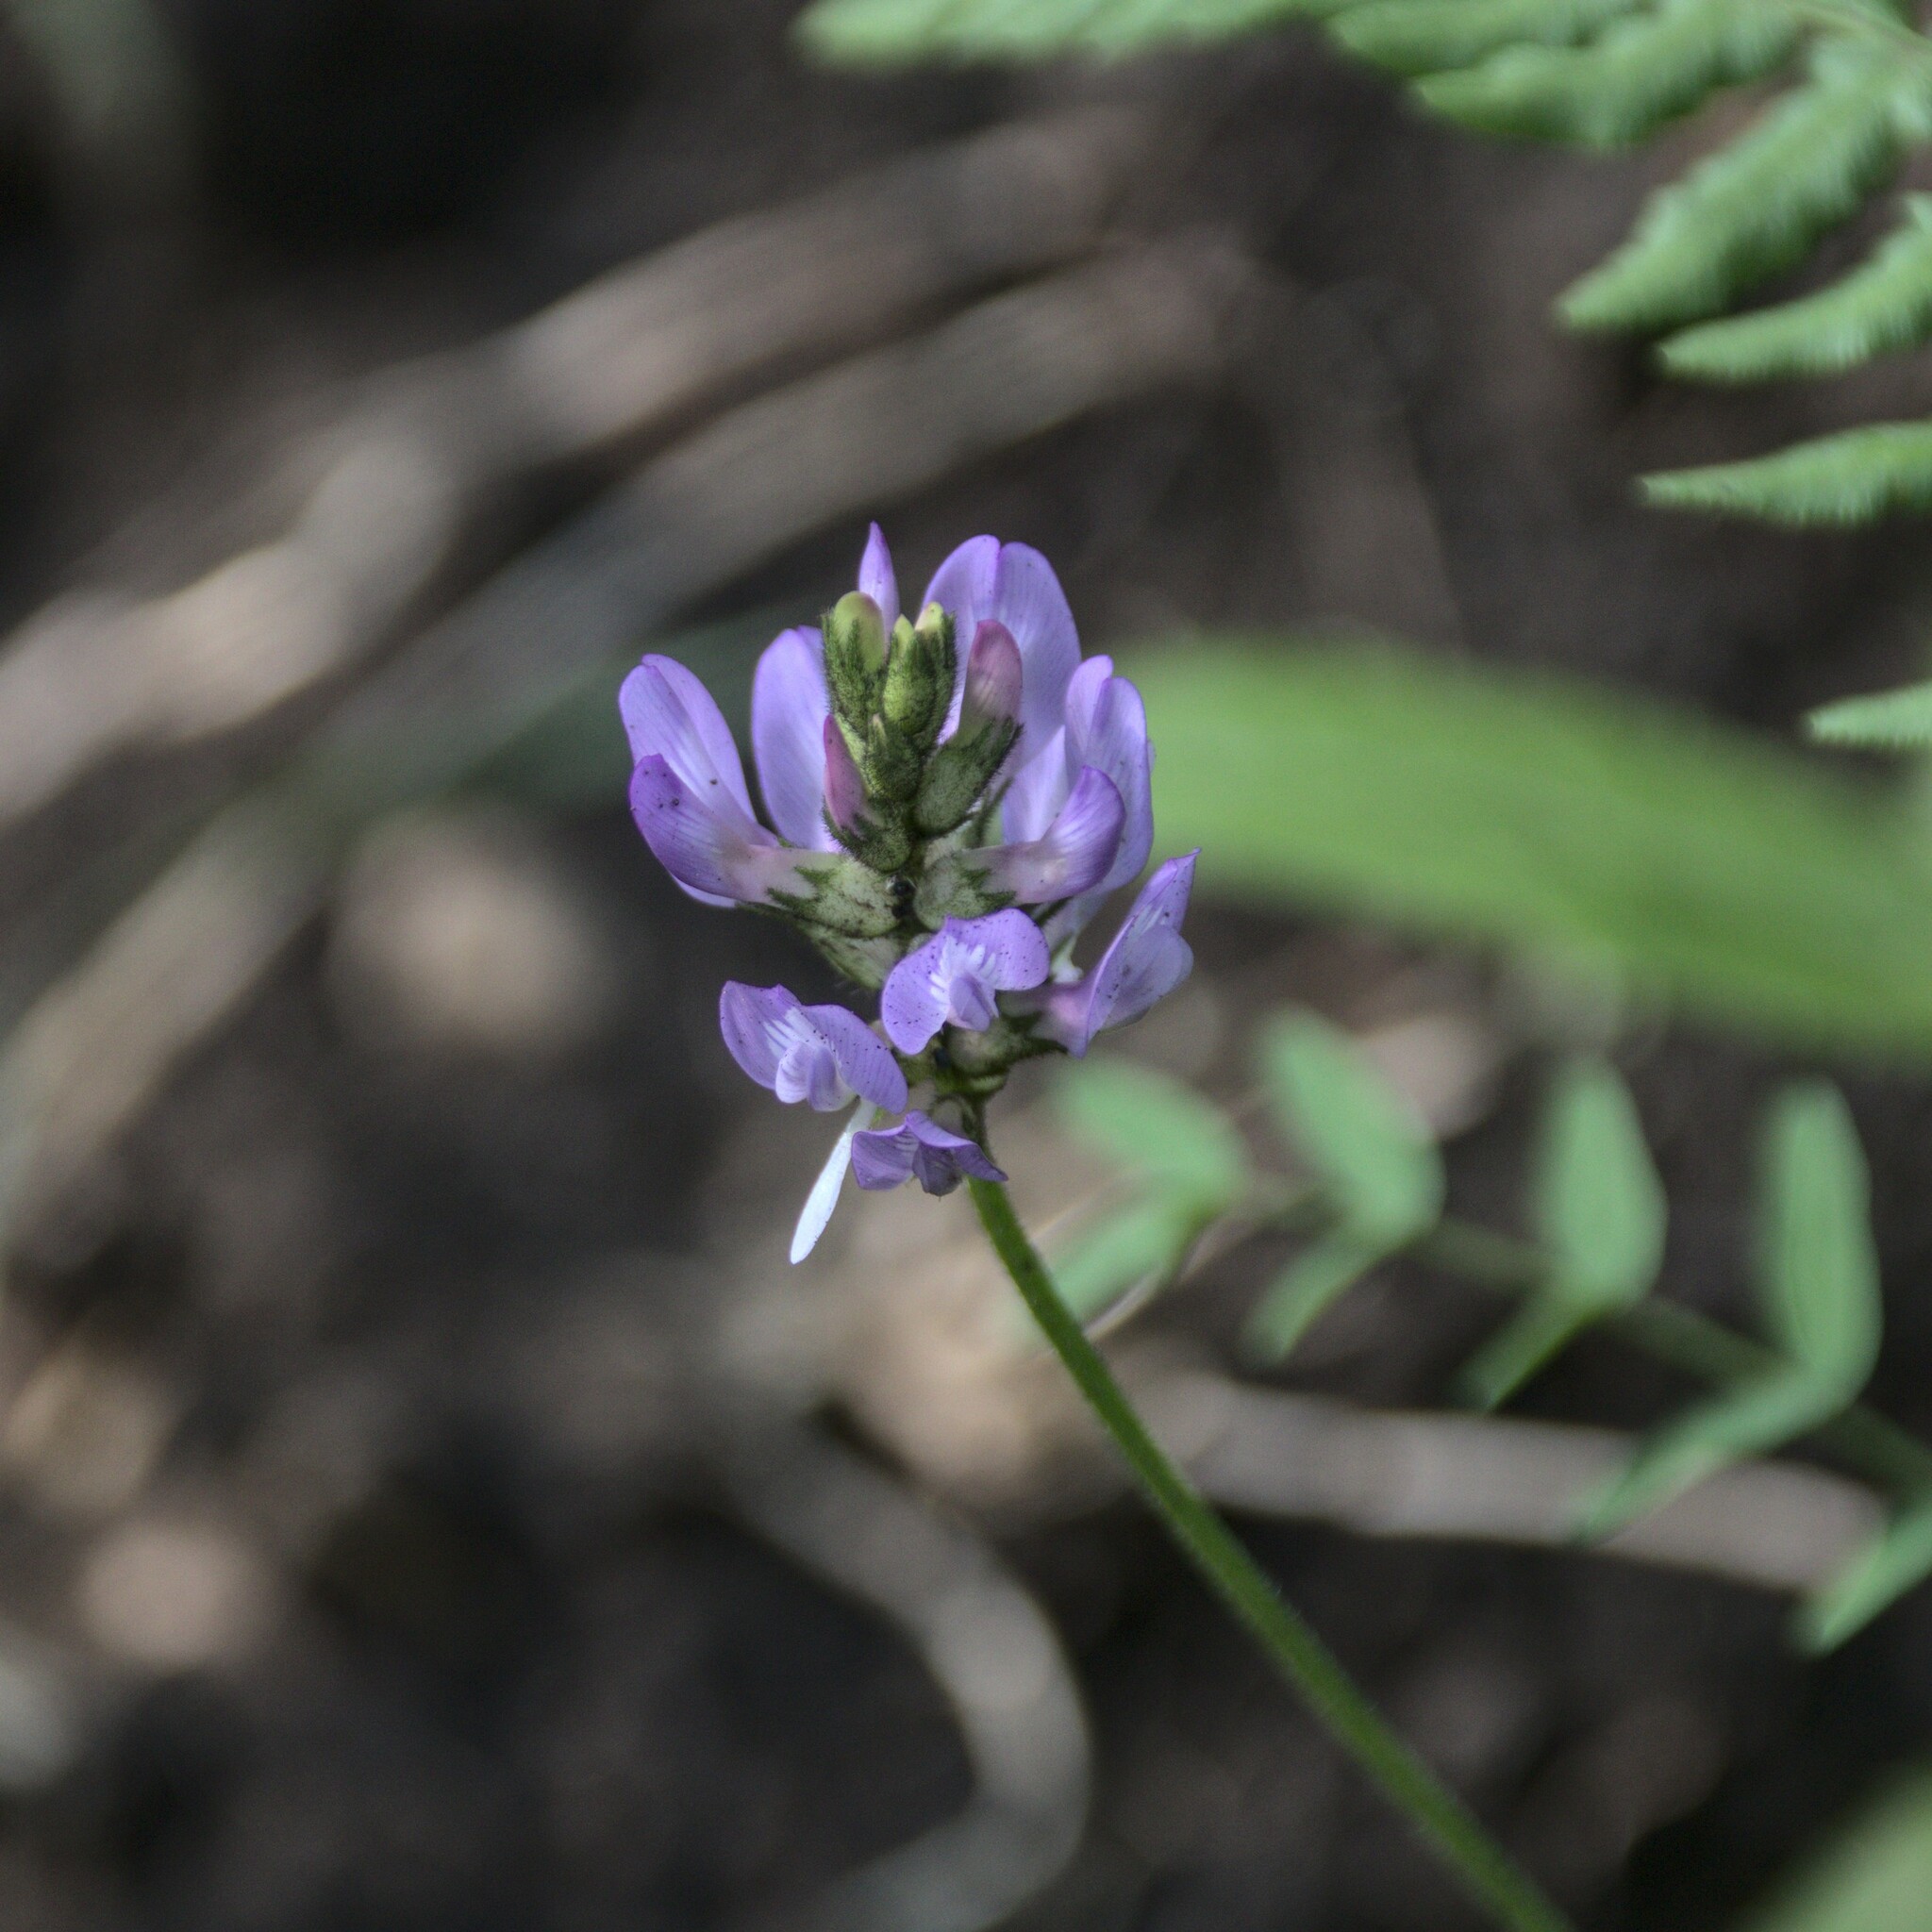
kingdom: Plantae
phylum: Tracheophyta
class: Magnoliopsida
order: Fabales
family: Fabaceae
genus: Astragalus
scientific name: Astragalus danicus
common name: Purple milk-vetch
